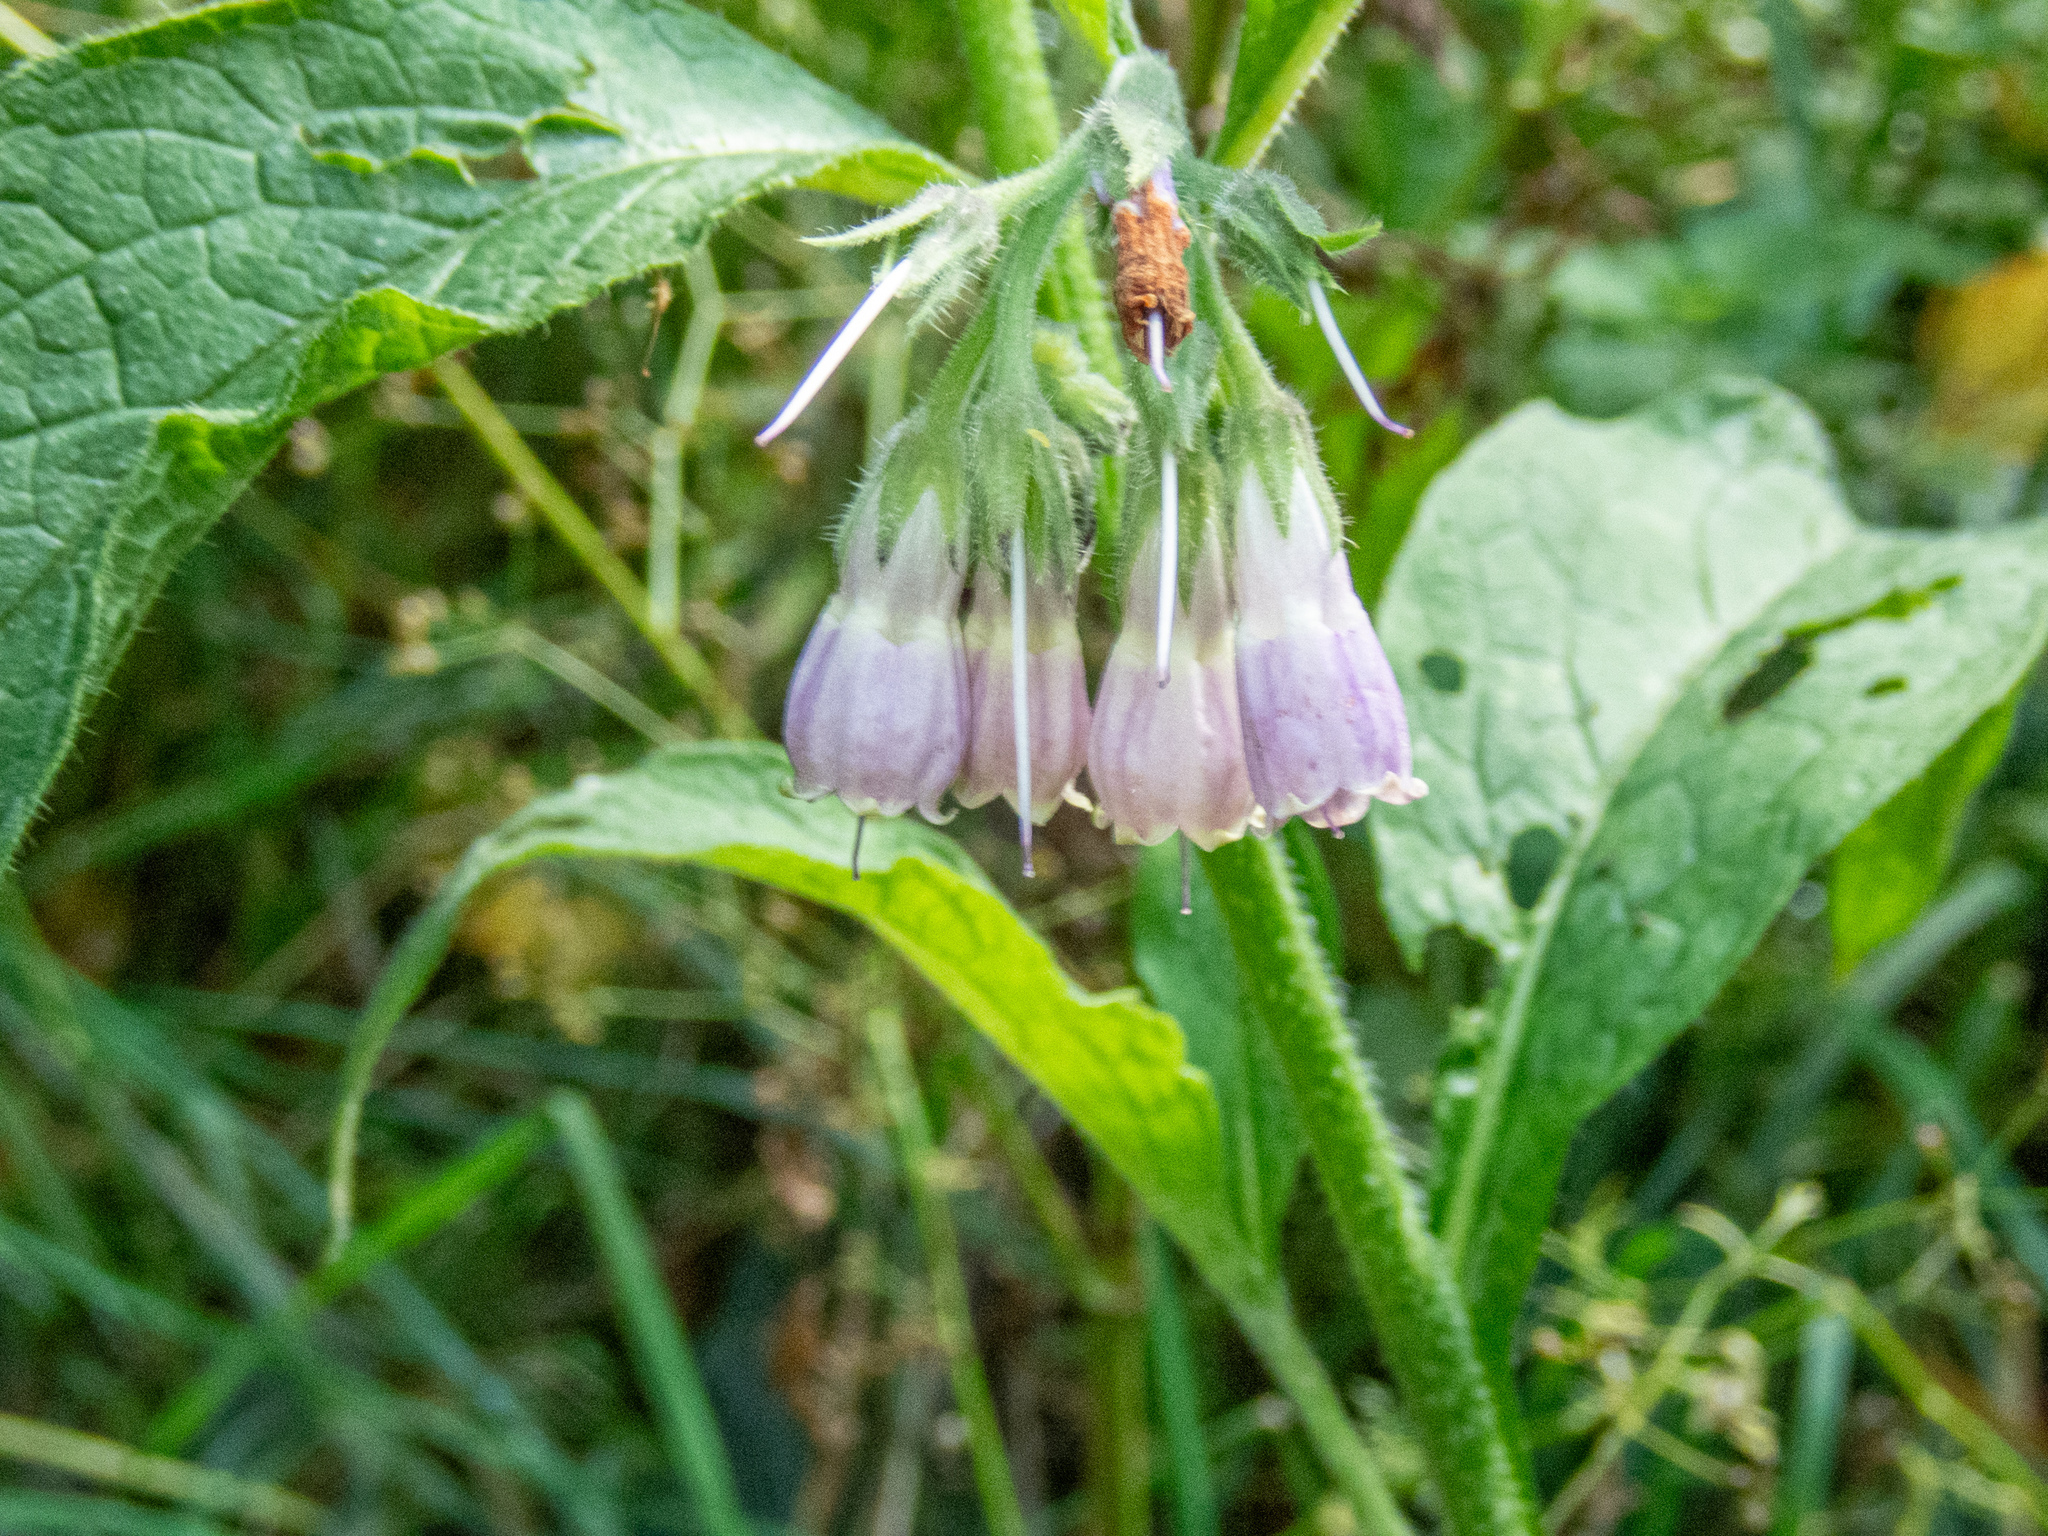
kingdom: Plantae
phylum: Tracheophyta
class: Magnoliopsida
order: Boraginales
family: Boraginaceae
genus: Symphytum
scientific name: Symphytum uplandicum
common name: Russian comfrey
